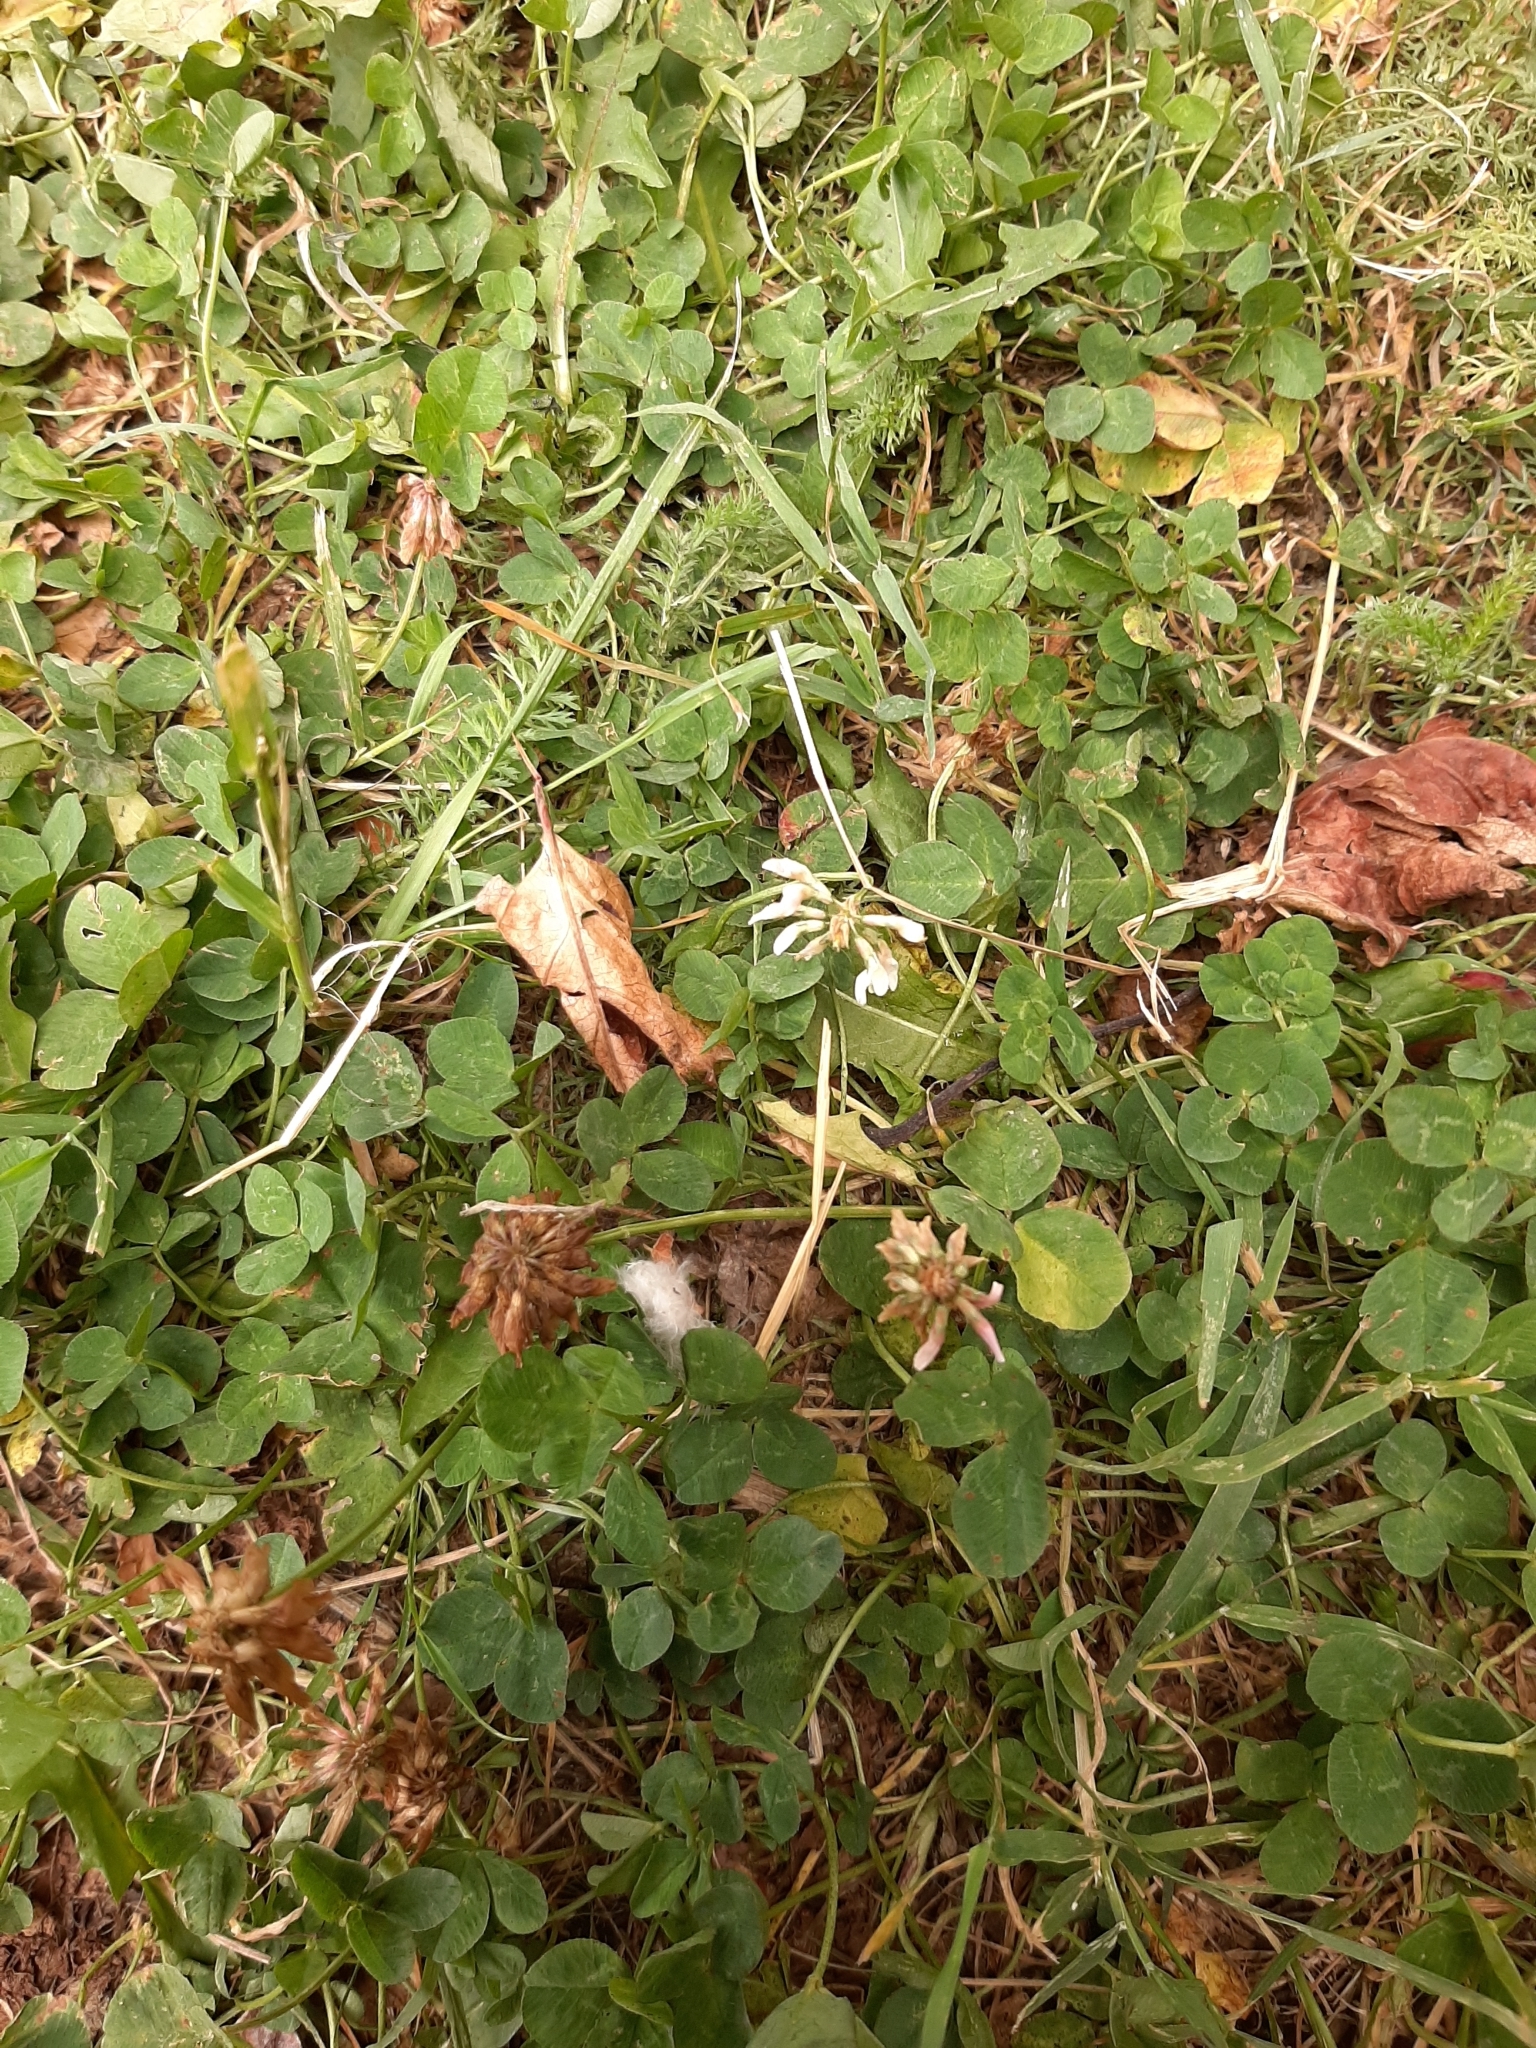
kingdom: Plantae
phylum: Tracheophyta
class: Magnoliopsida
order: Fabales
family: Fabaceae
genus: Trifolium
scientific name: Trifolium repens
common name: White clover
